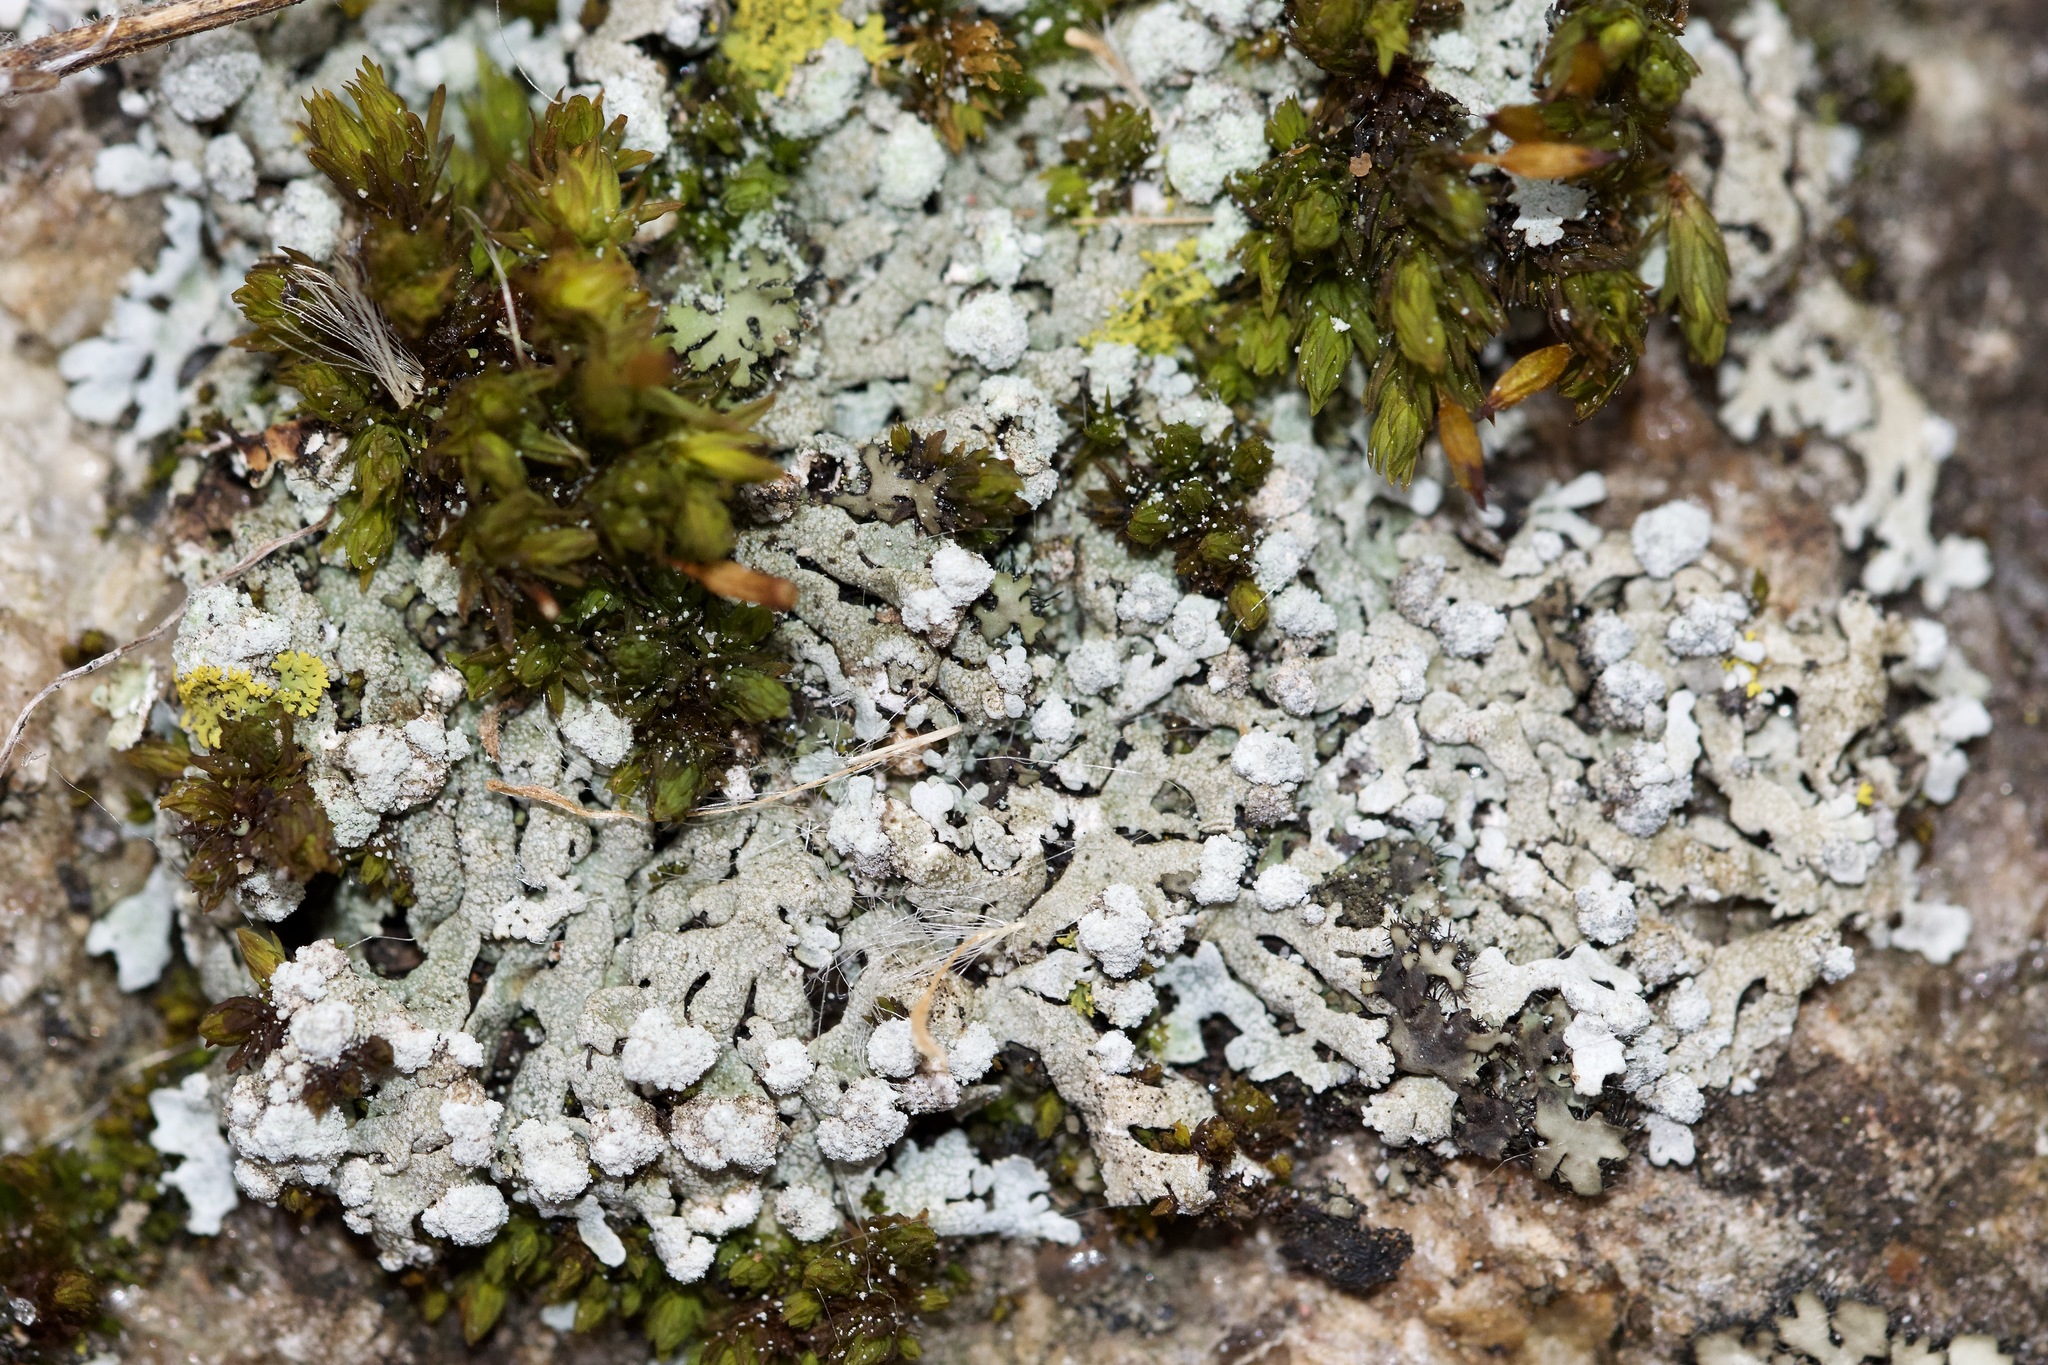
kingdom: Fungi
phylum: Ascomycota
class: Lecanoromycetes
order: Caliciales
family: Physciaceae
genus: Physcia
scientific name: Physcia caesia
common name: Blue-gray rosette lichen
